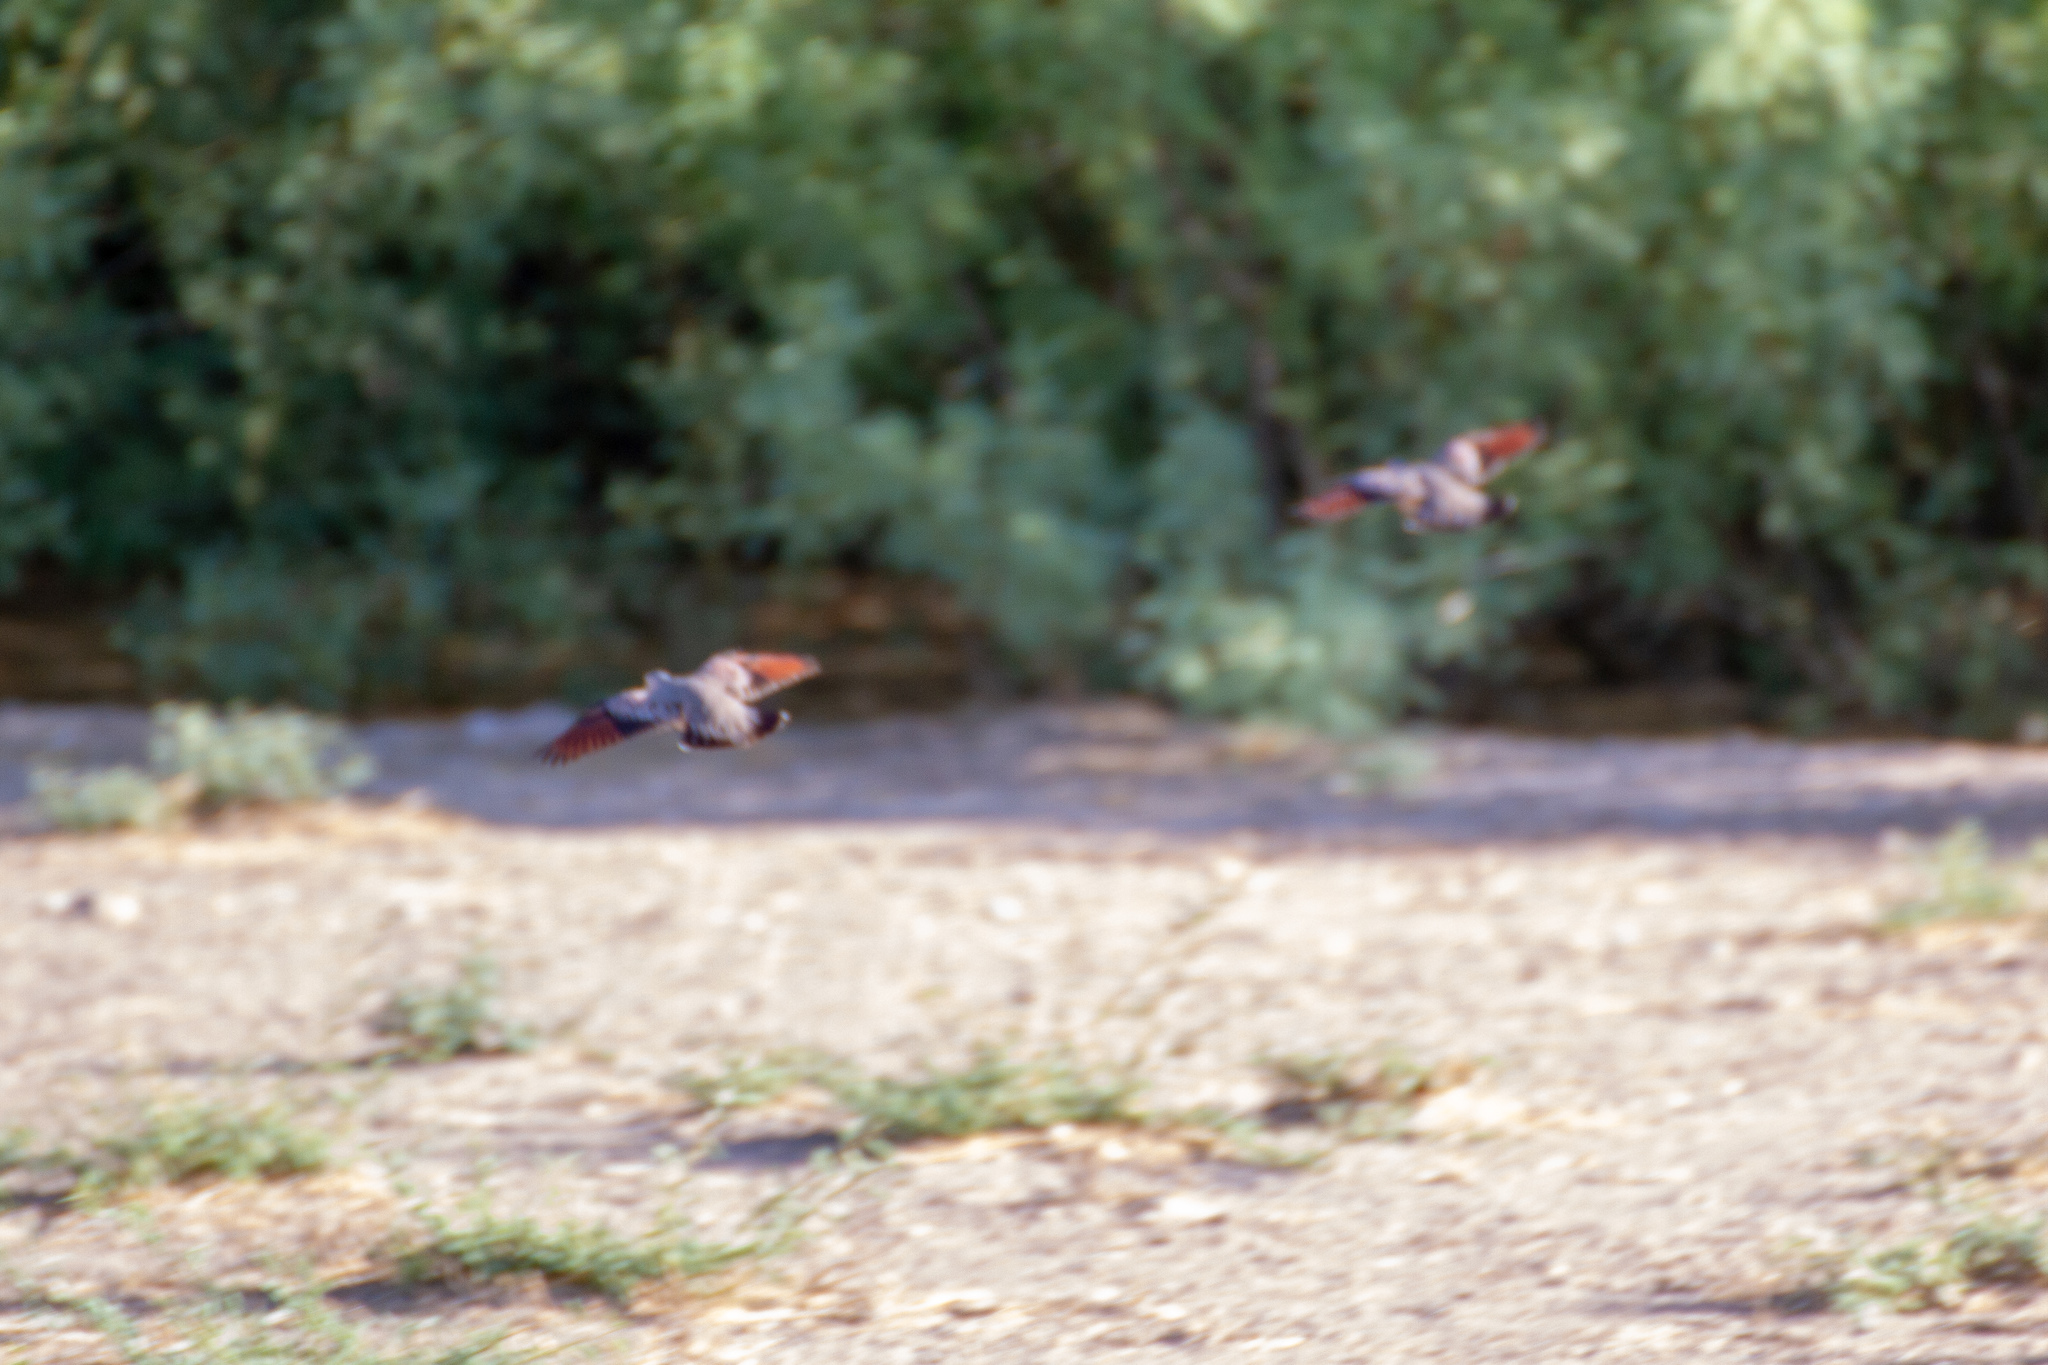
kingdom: Animalia
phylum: Chordata
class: Aves
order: Columbiformes
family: Columbidae
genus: Columbina
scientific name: Columbina passerina
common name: Common ground-dove
